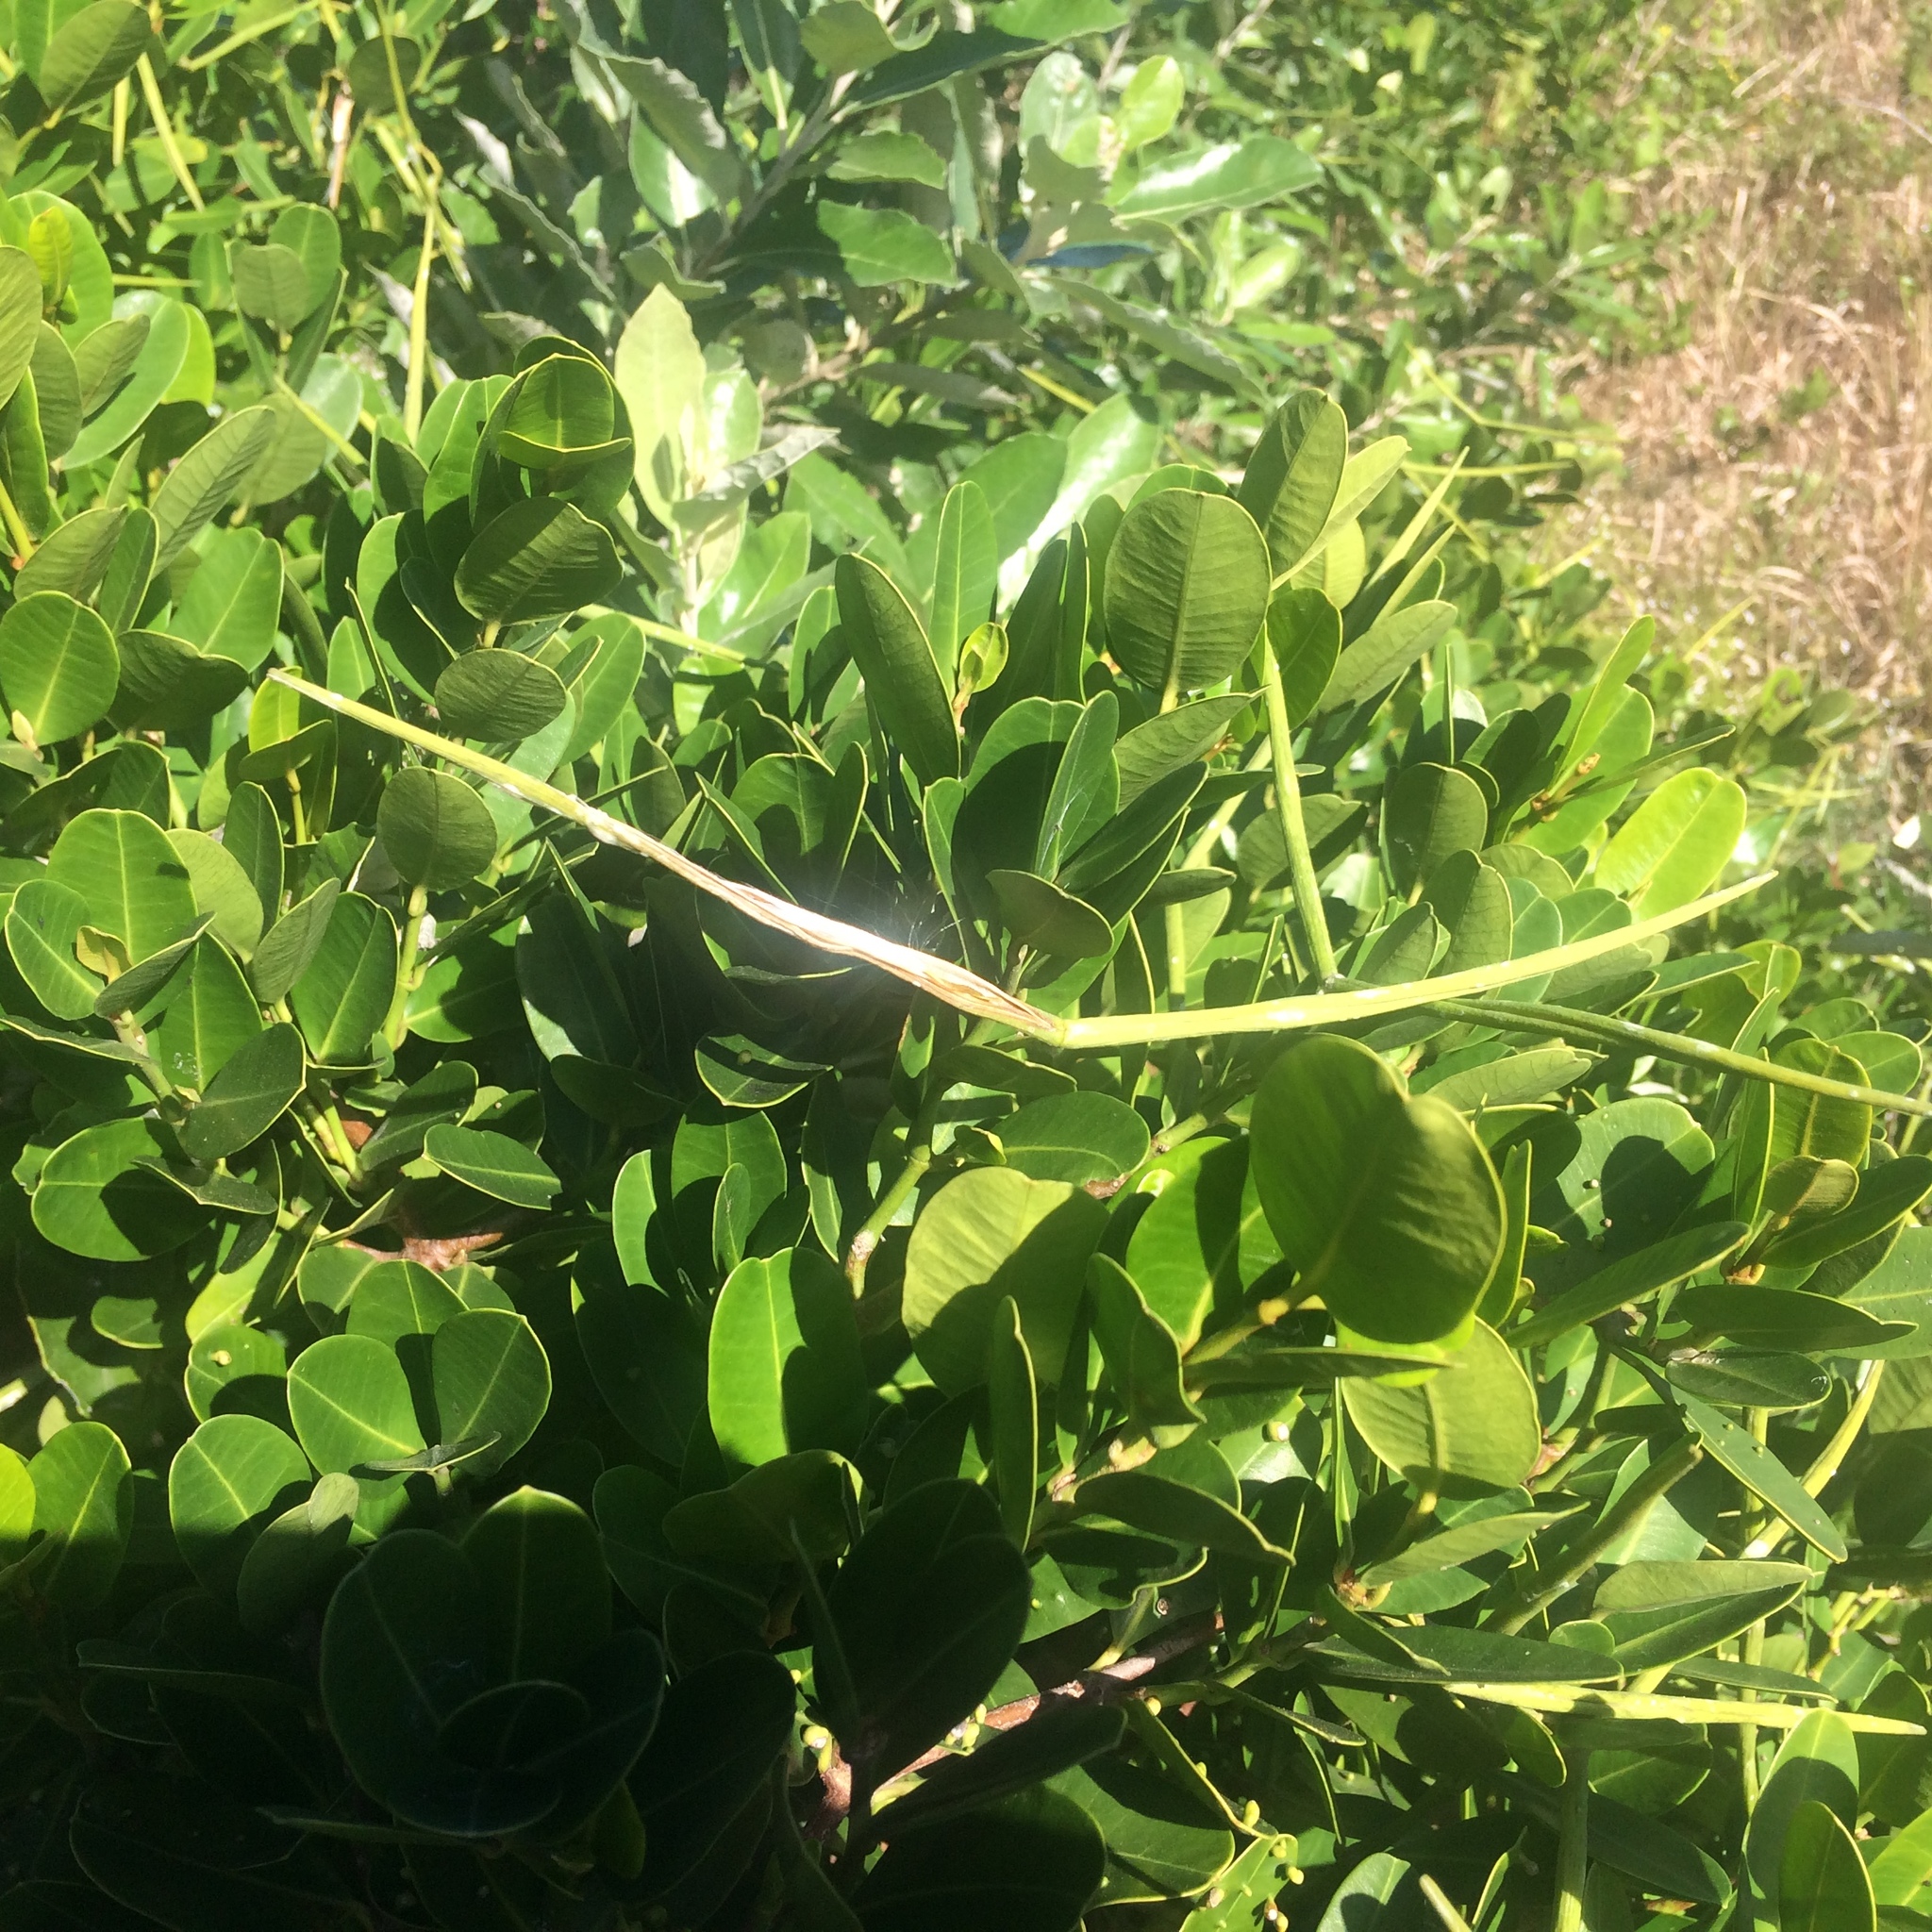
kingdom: Plantae
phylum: Tracheophyta
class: Magnoliopsida
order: Gentianales
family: Apocynaceae
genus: Secamone
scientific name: Secamone alpini
